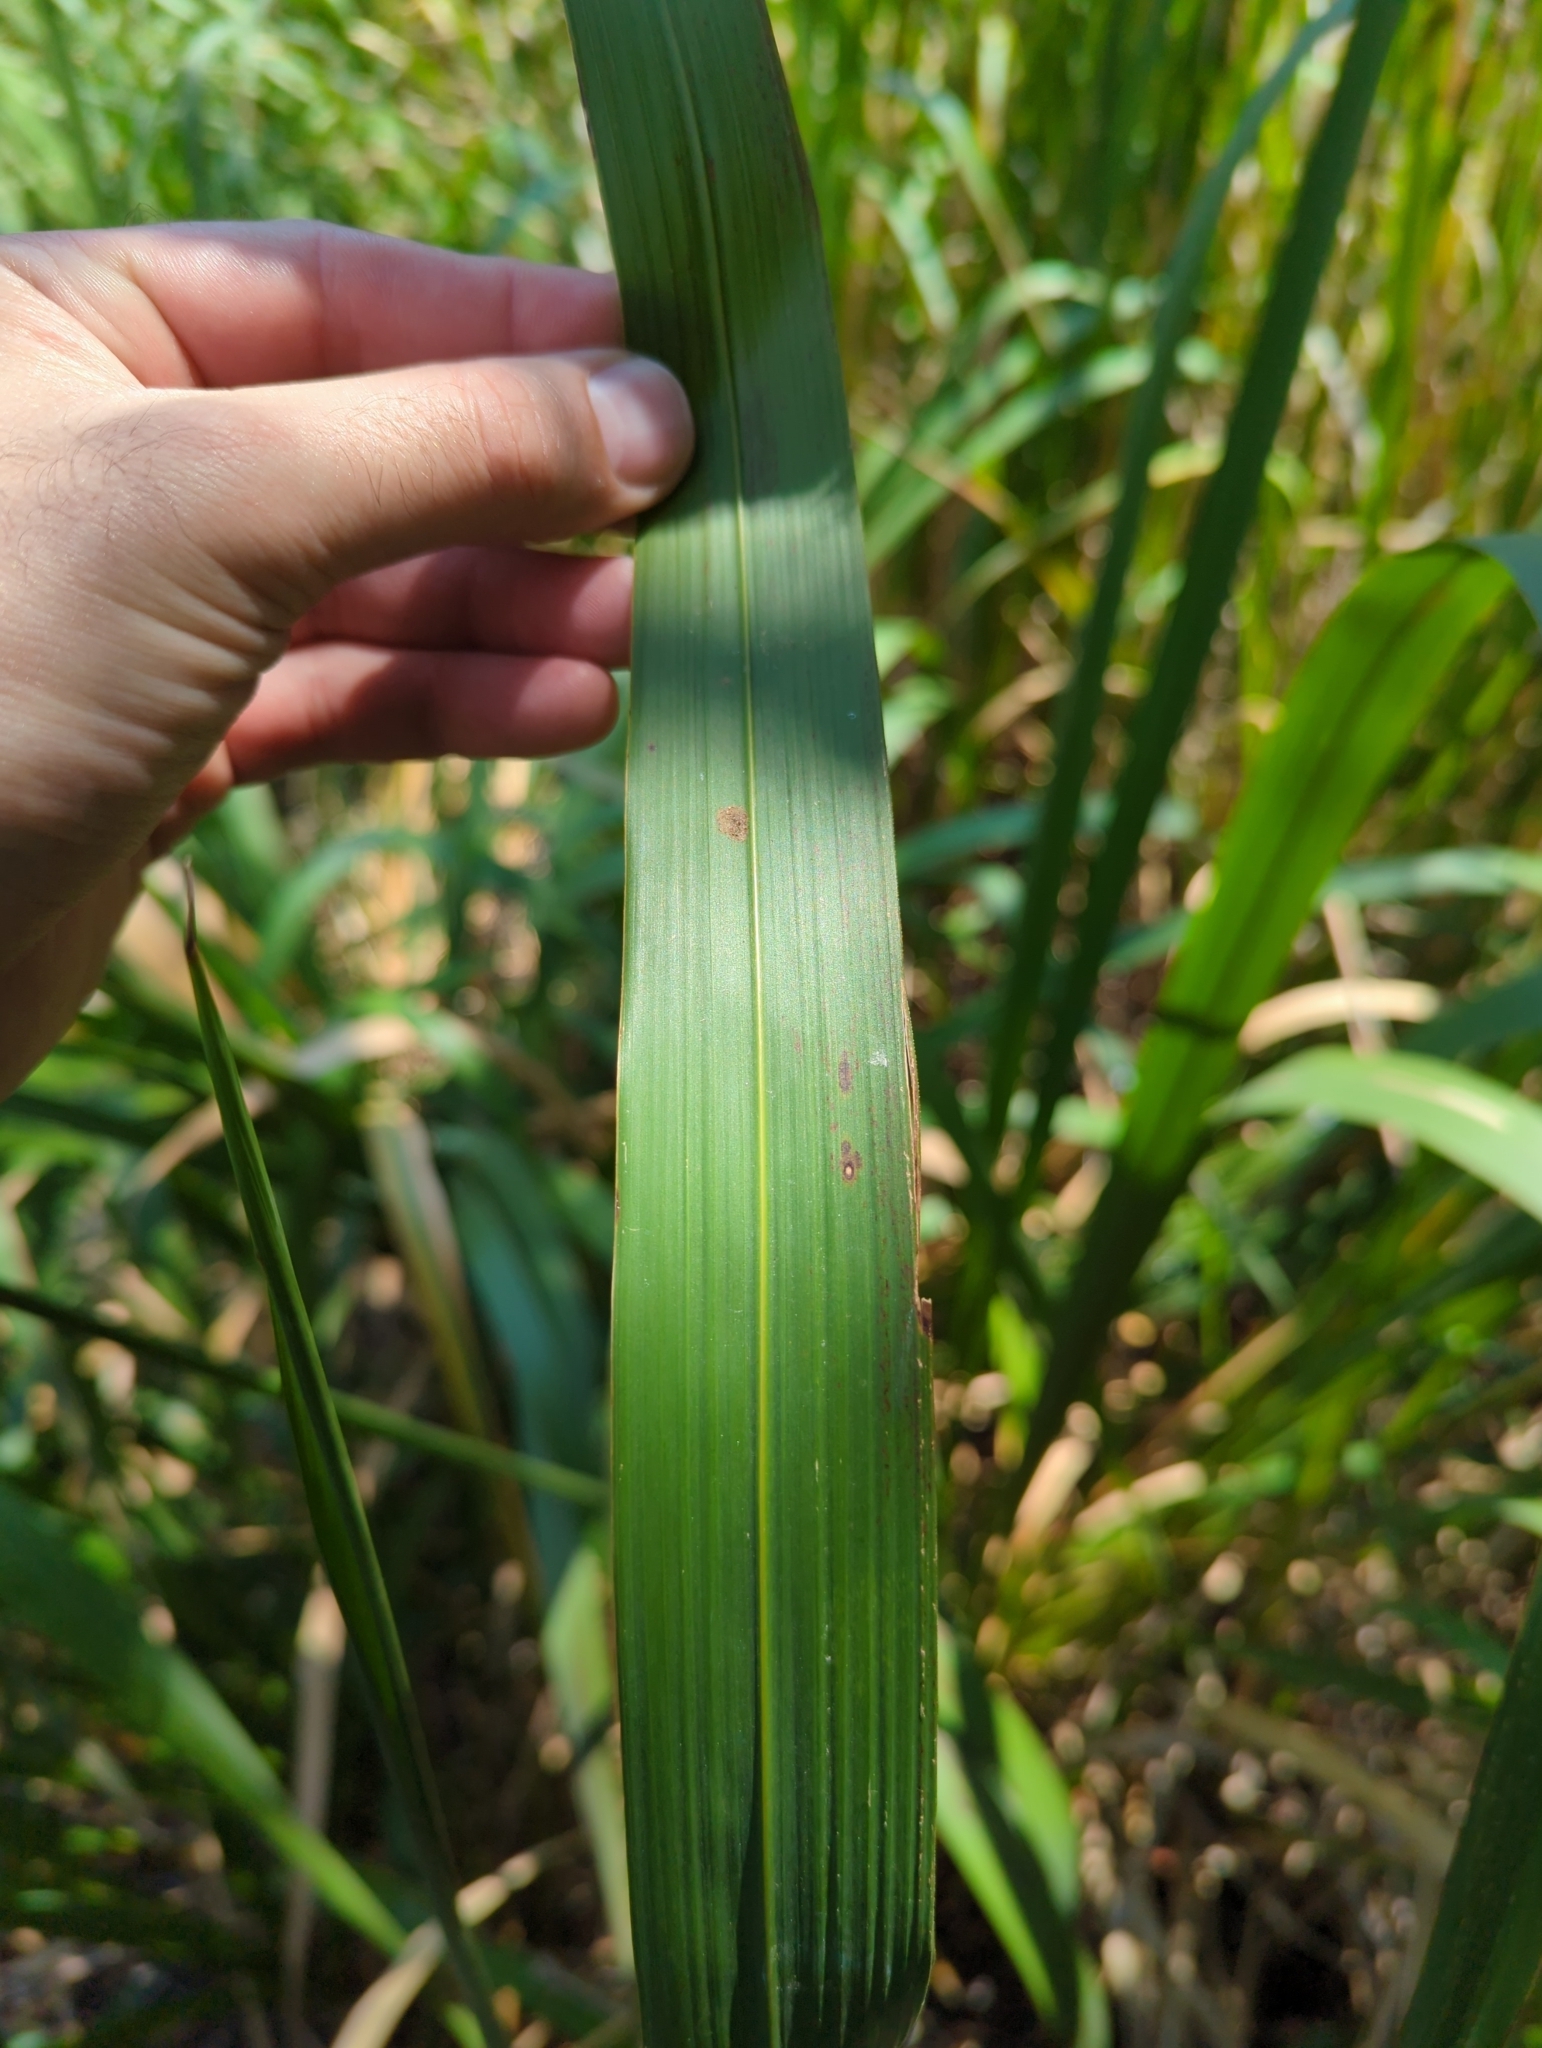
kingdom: Plantae
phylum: Tracheophyta
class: Liliopsida
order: Poales
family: Poaceae
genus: Zizaniopsis
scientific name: Zizaniopsis miliacea
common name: Giant-cutgrass
